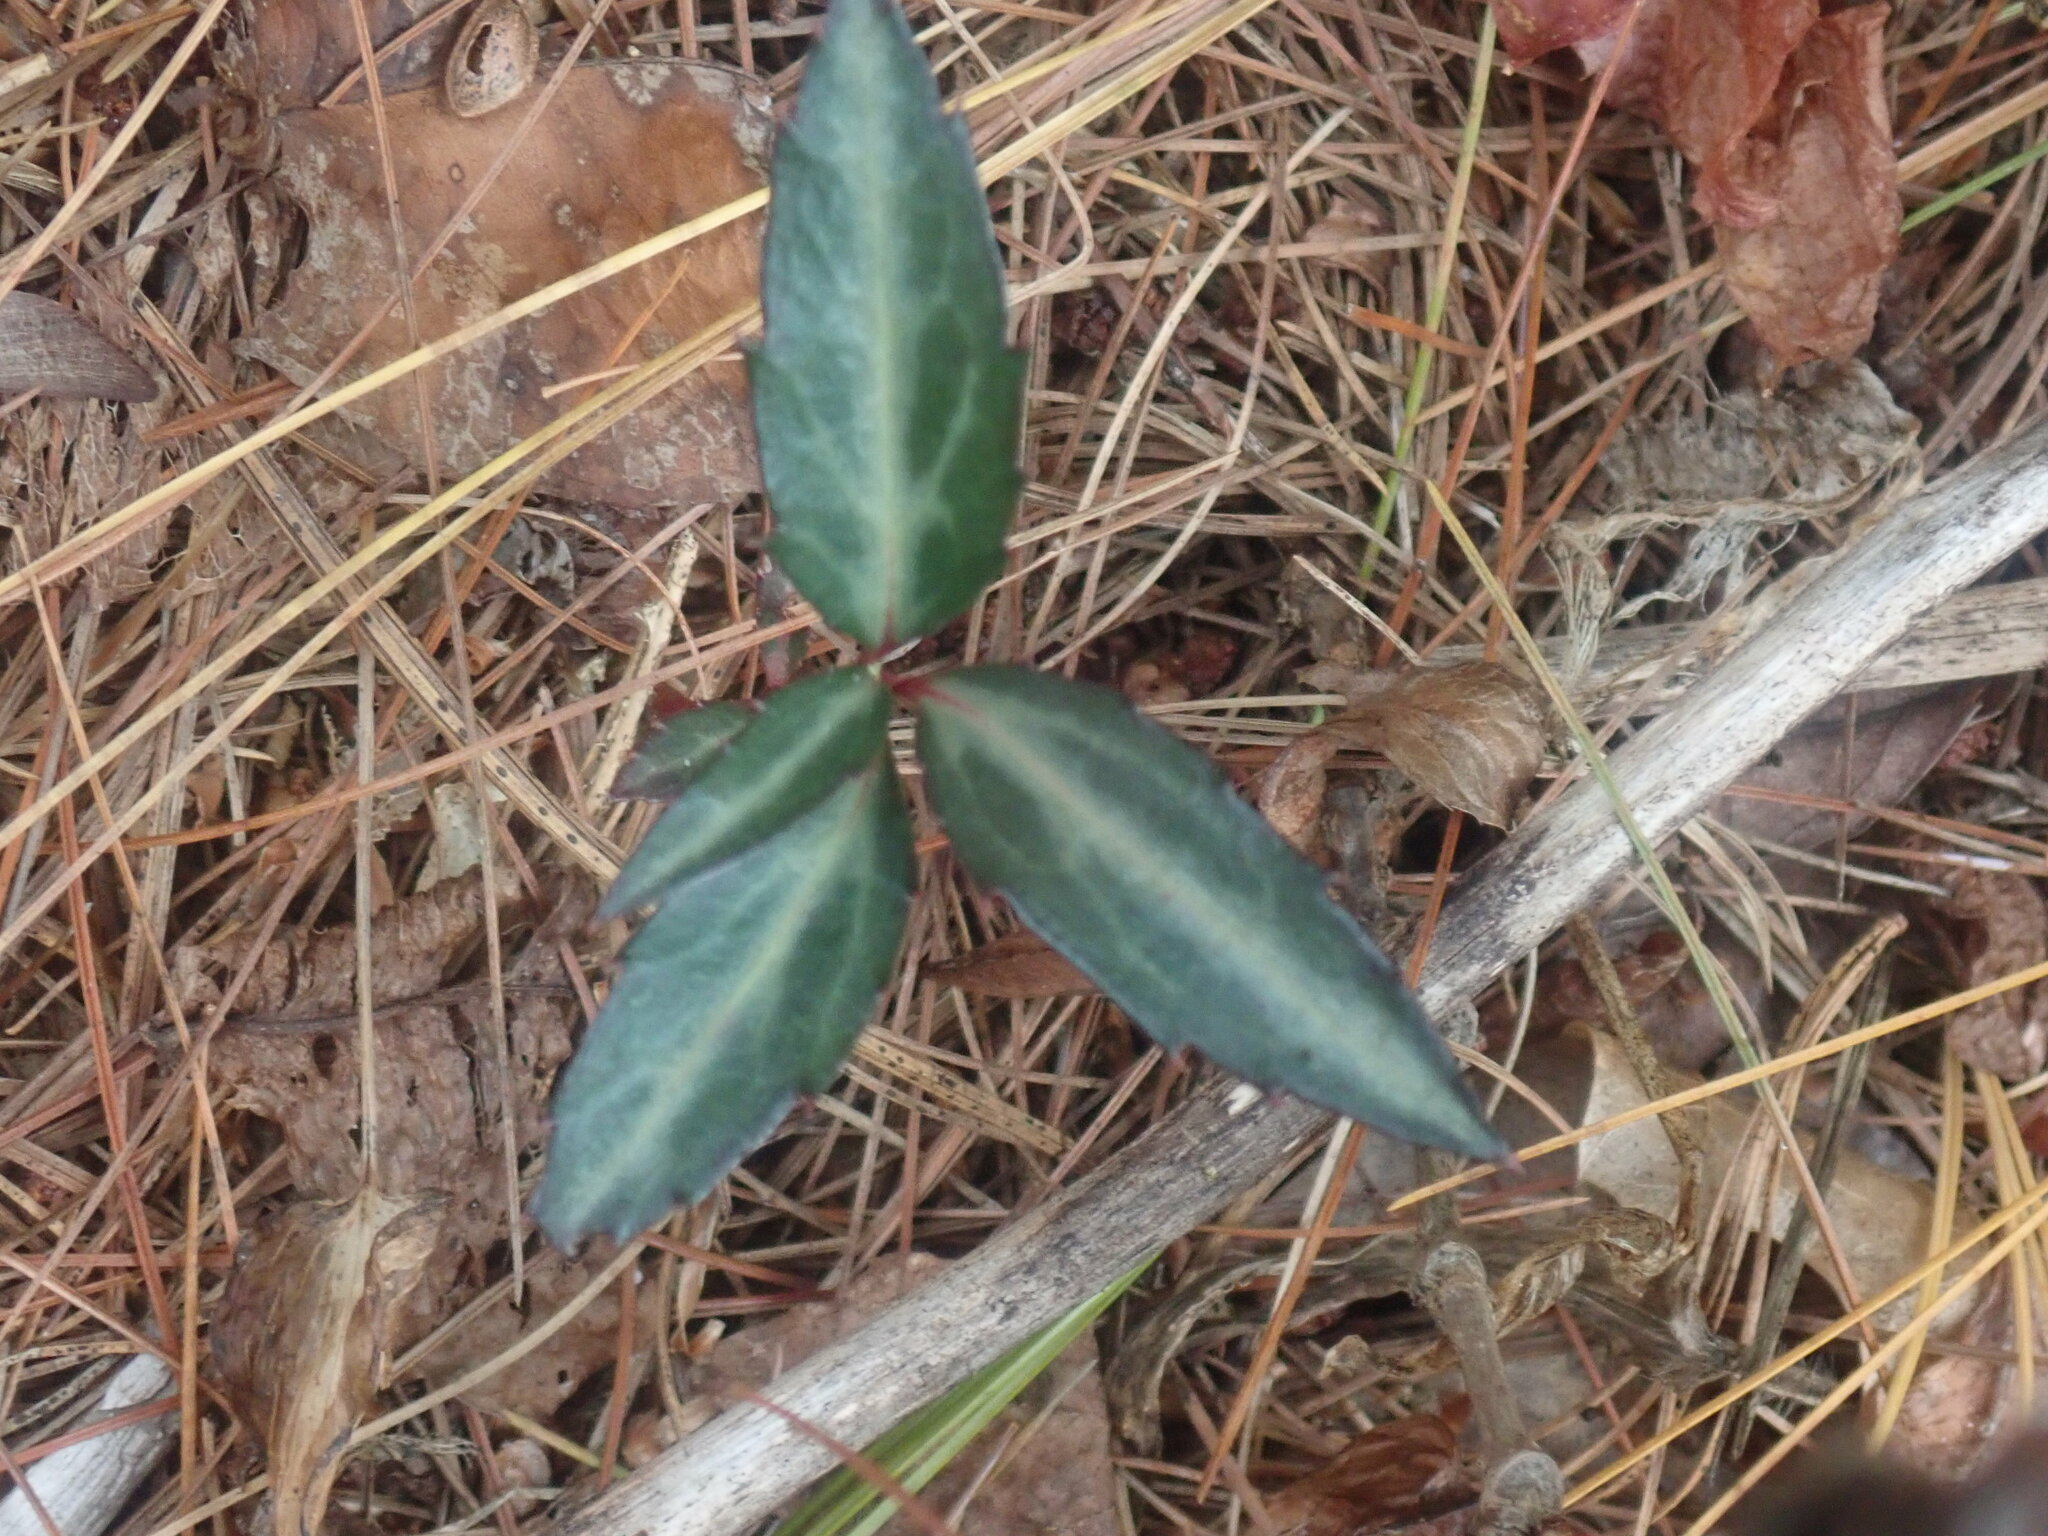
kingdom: Plantae
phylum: Tracheophyta
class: Magnoliopsida
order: Ericales
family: Ericaceae
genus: Chimaphila
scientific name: Chimaphila maculata
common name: Spotted pipsissewa
